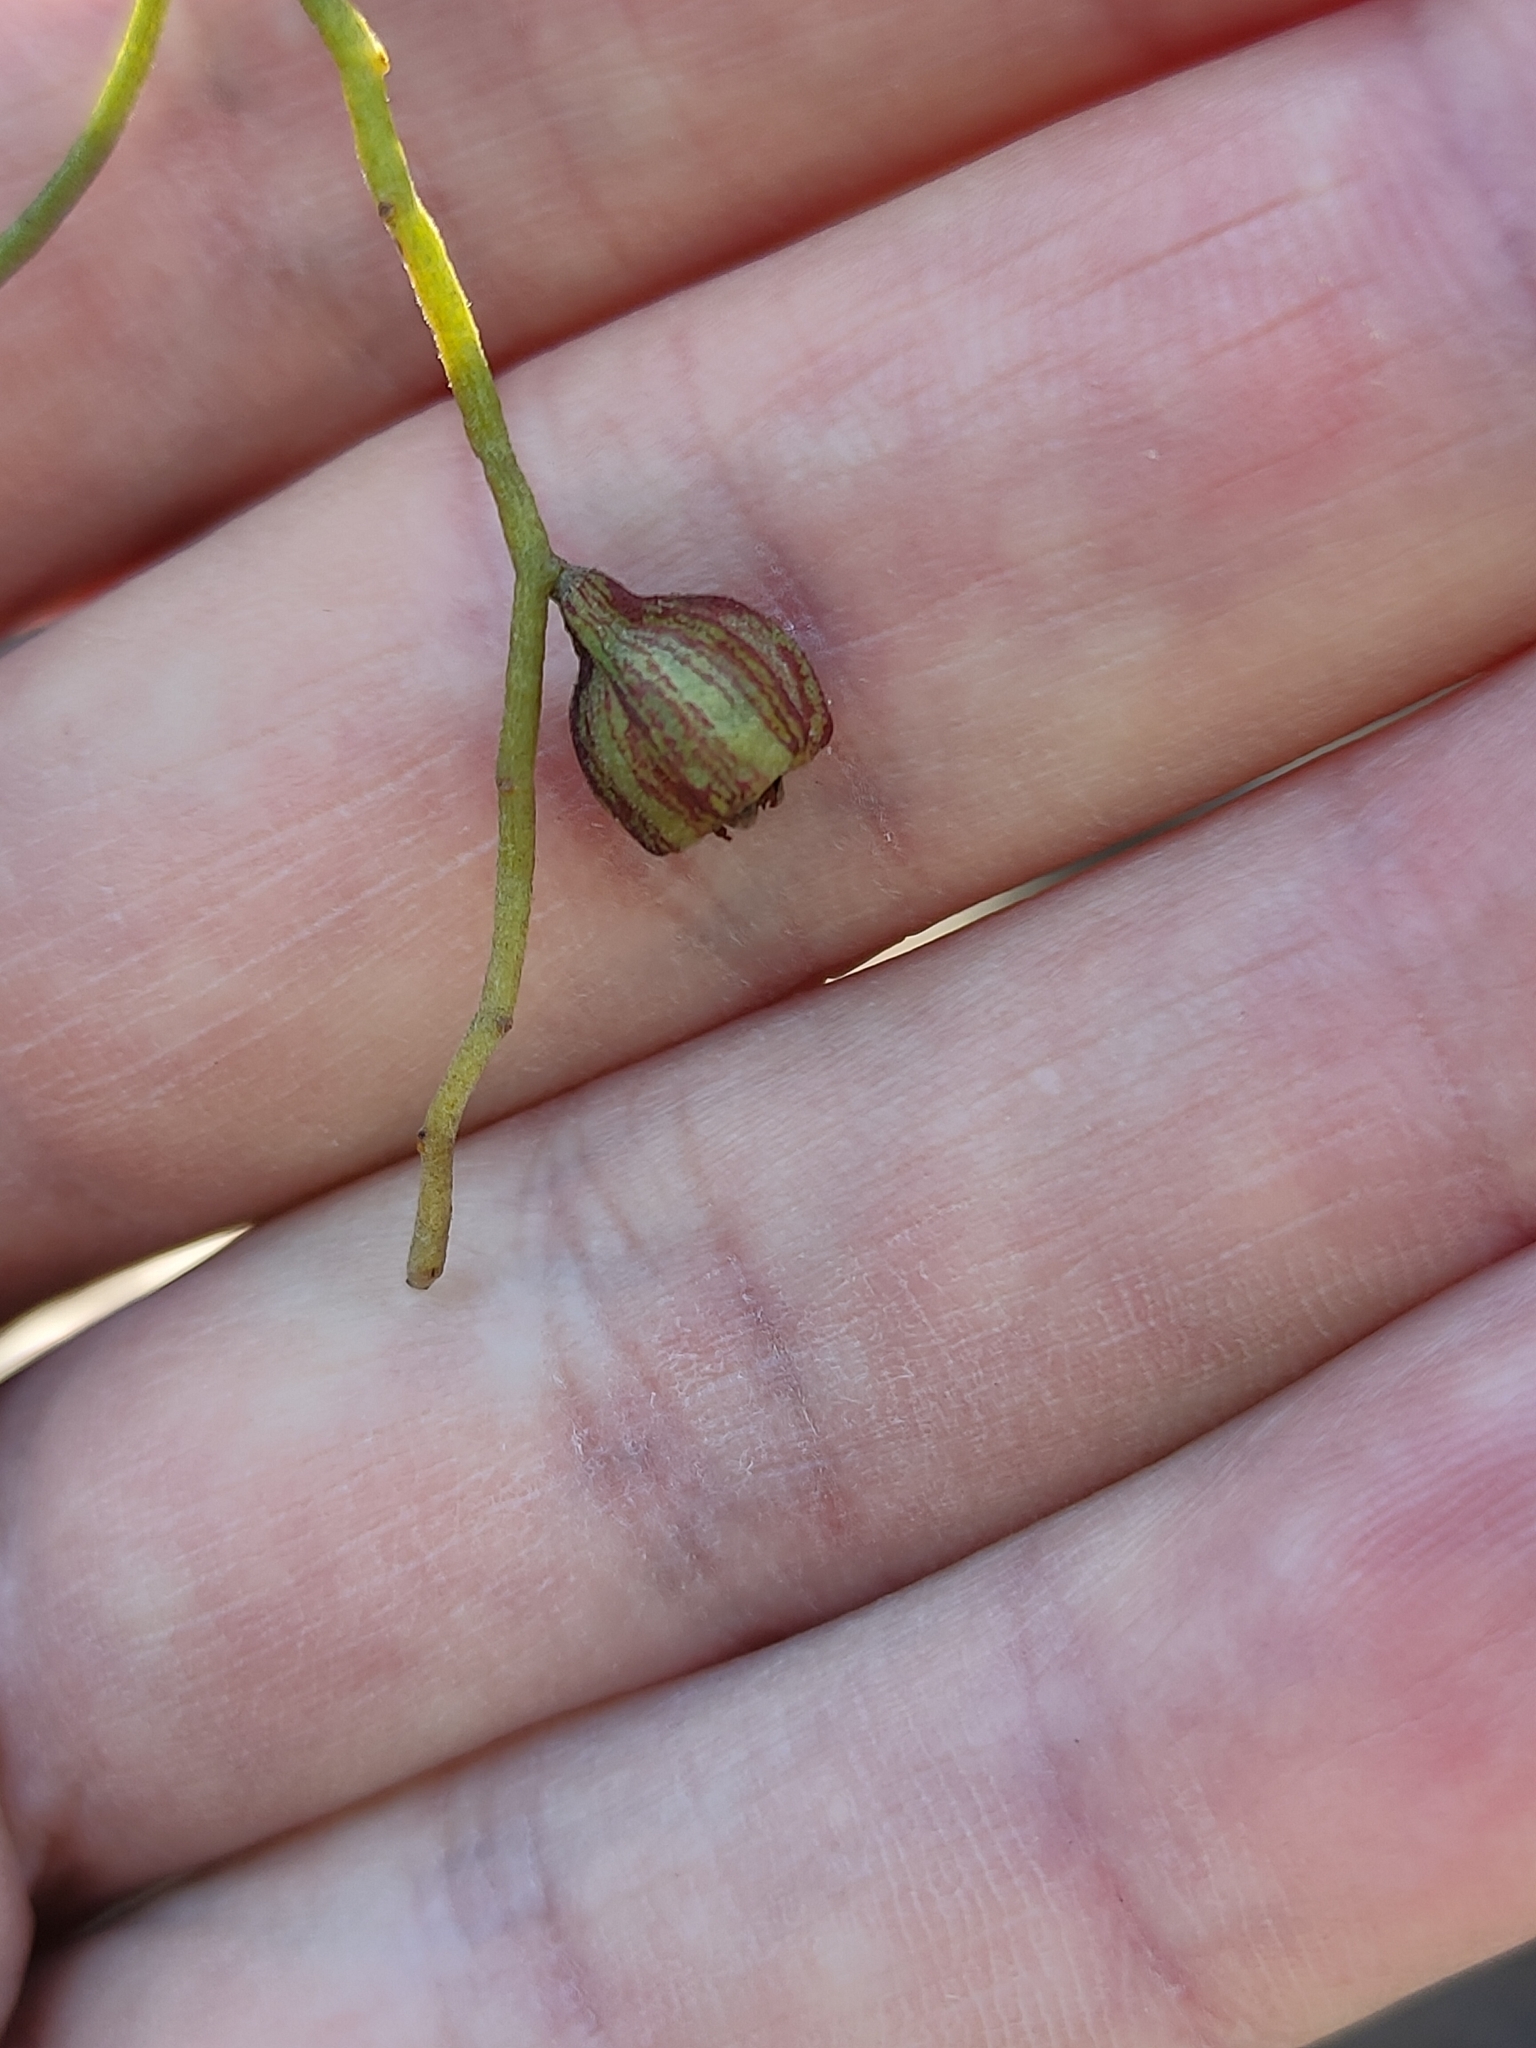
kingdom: Plantae
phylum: Tracheophyta
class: Magnoliopsida
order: Laurales
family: Lauraceae
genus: Cassytha
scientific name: Cassytha pubescens
